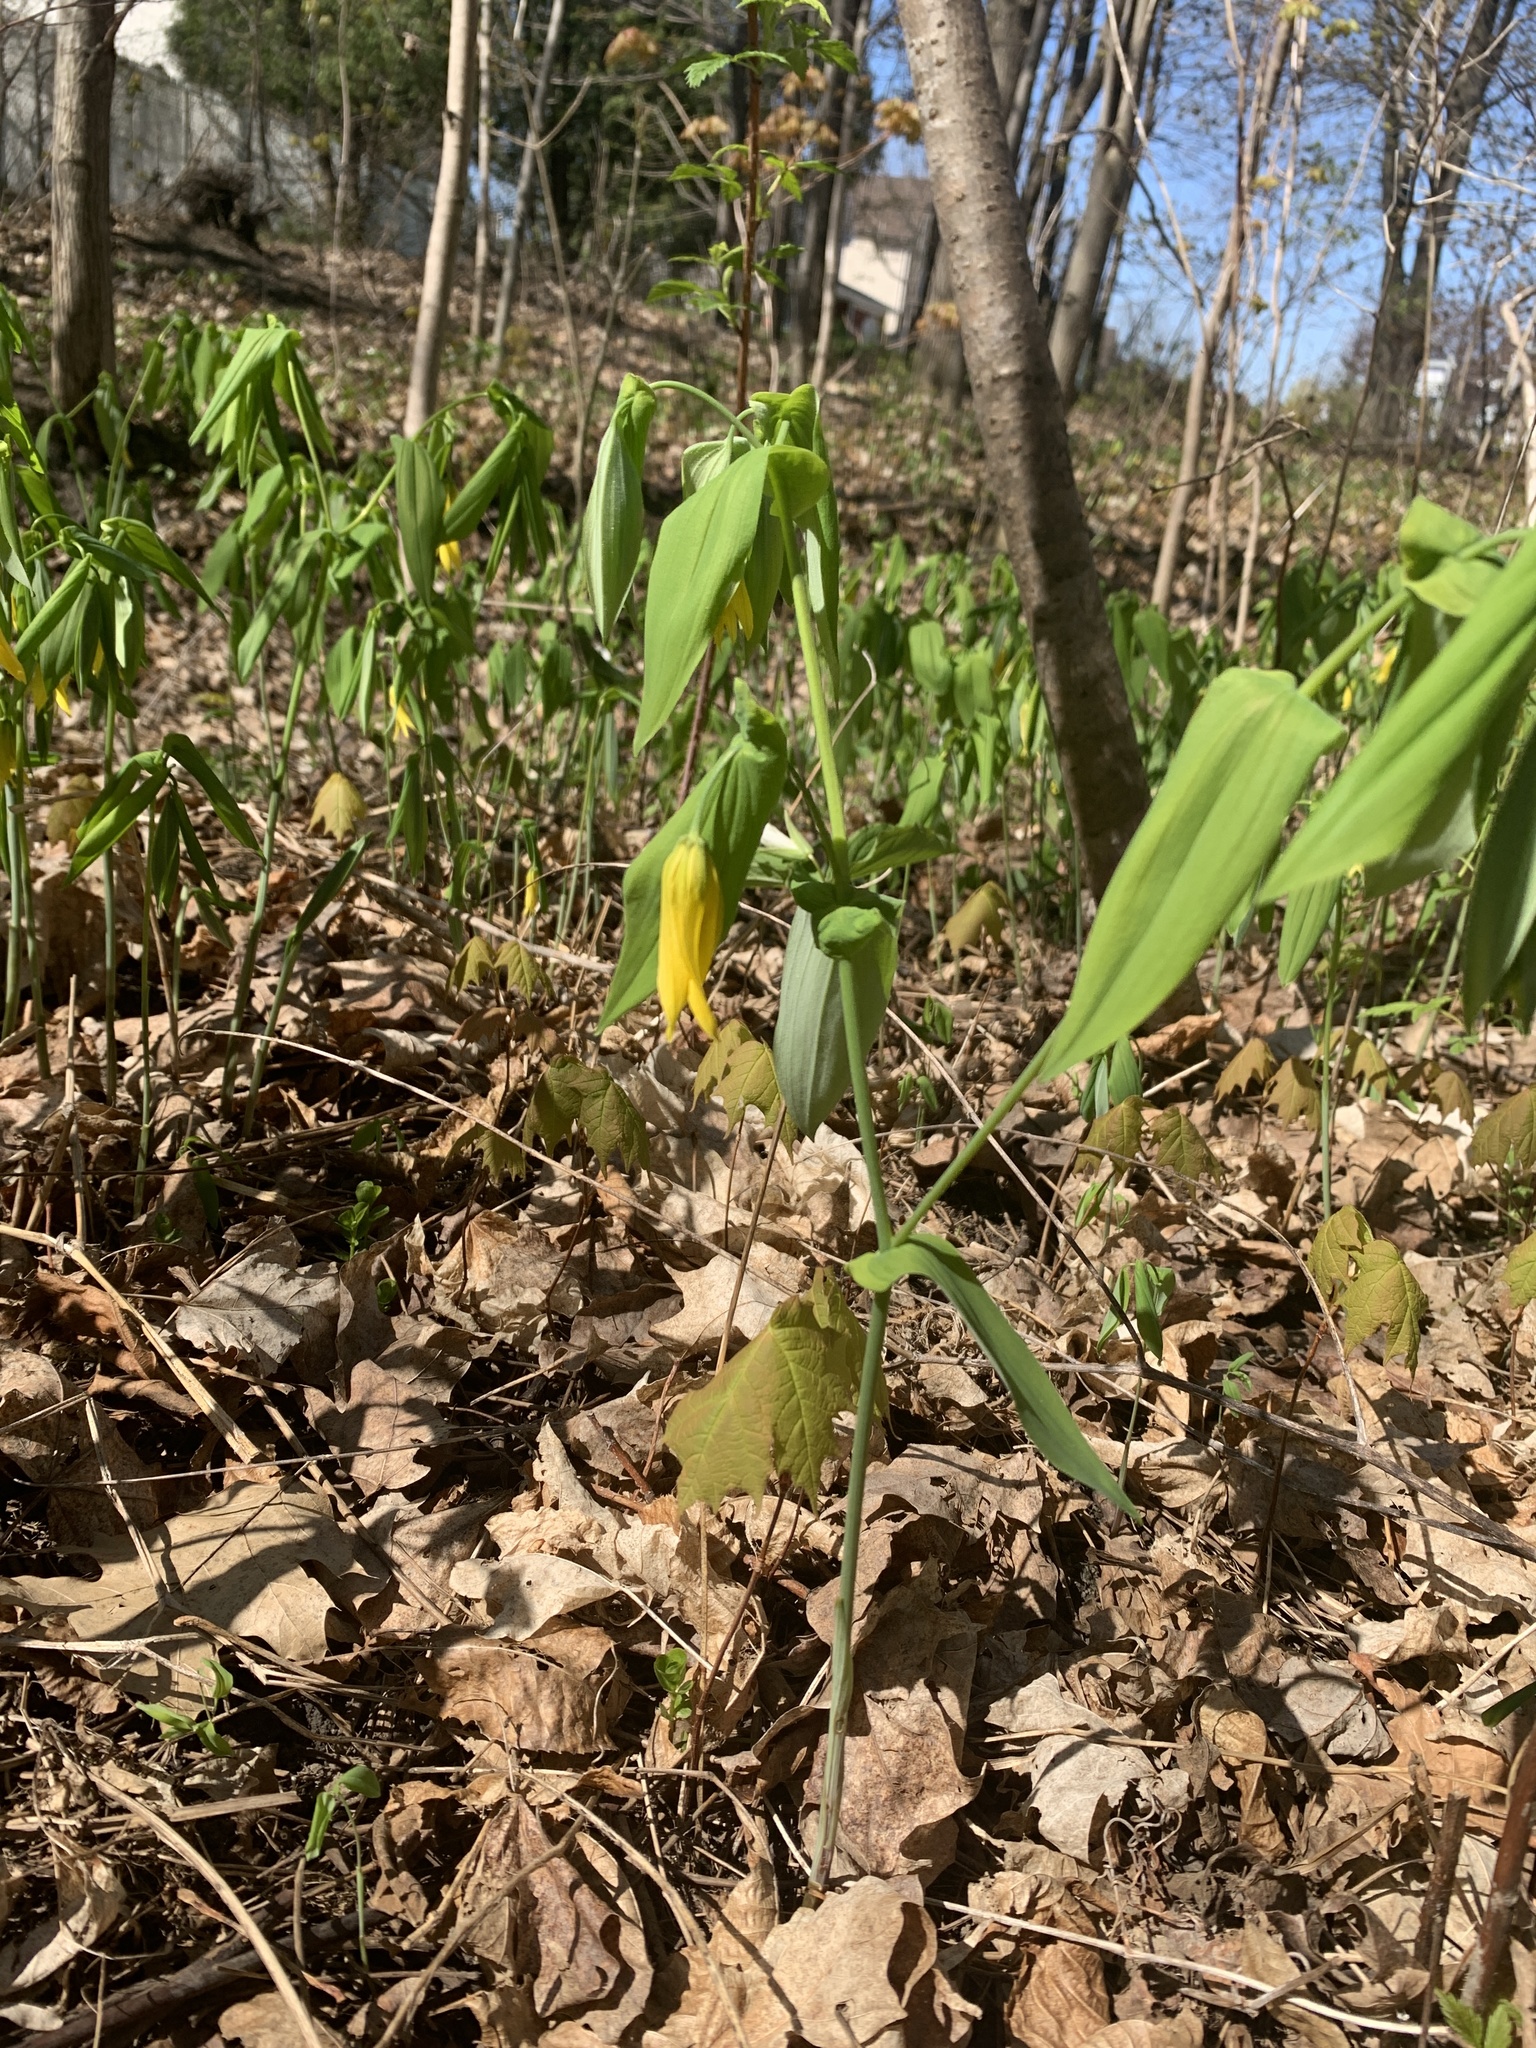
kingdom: Plantae
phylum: Tracheophyta
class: Liliopsida
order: Liliales
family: Colchicaceae
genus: Uvularia
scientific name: Uvularia grandiflora
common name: Bellwort
